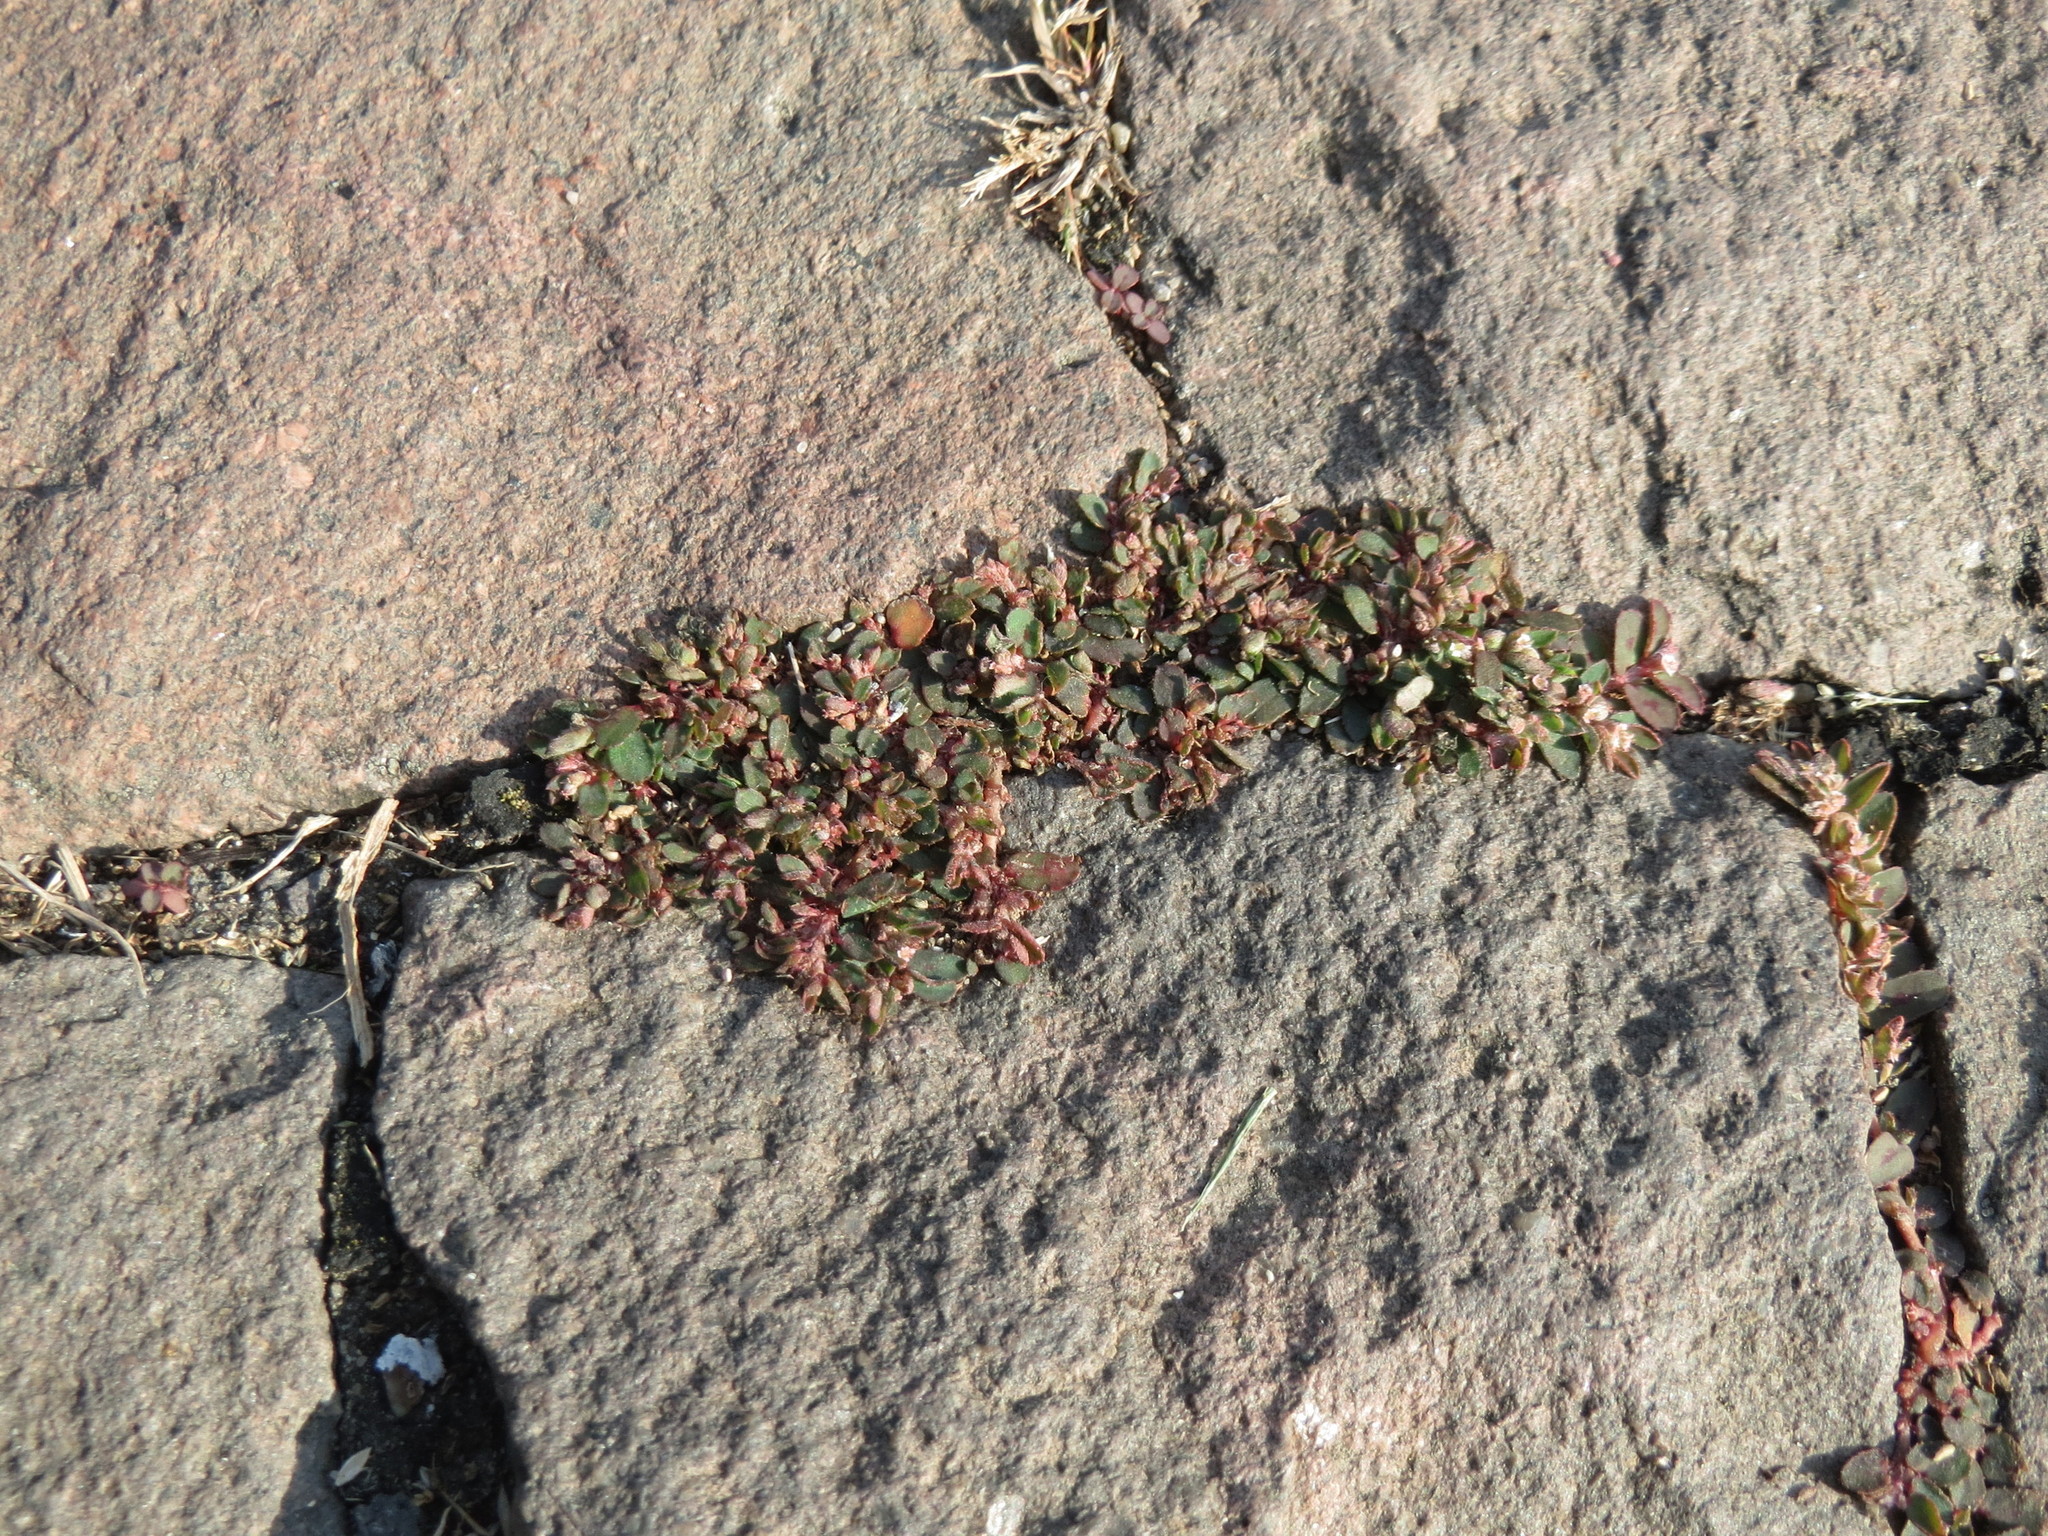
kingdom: Plantae
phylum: Tracheophyta
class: Magnoliopsida
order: Malpighiales
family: Euphorbiaceae
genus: Euphorbia
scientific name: Euphorbia maculata
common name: Spotted spurge
